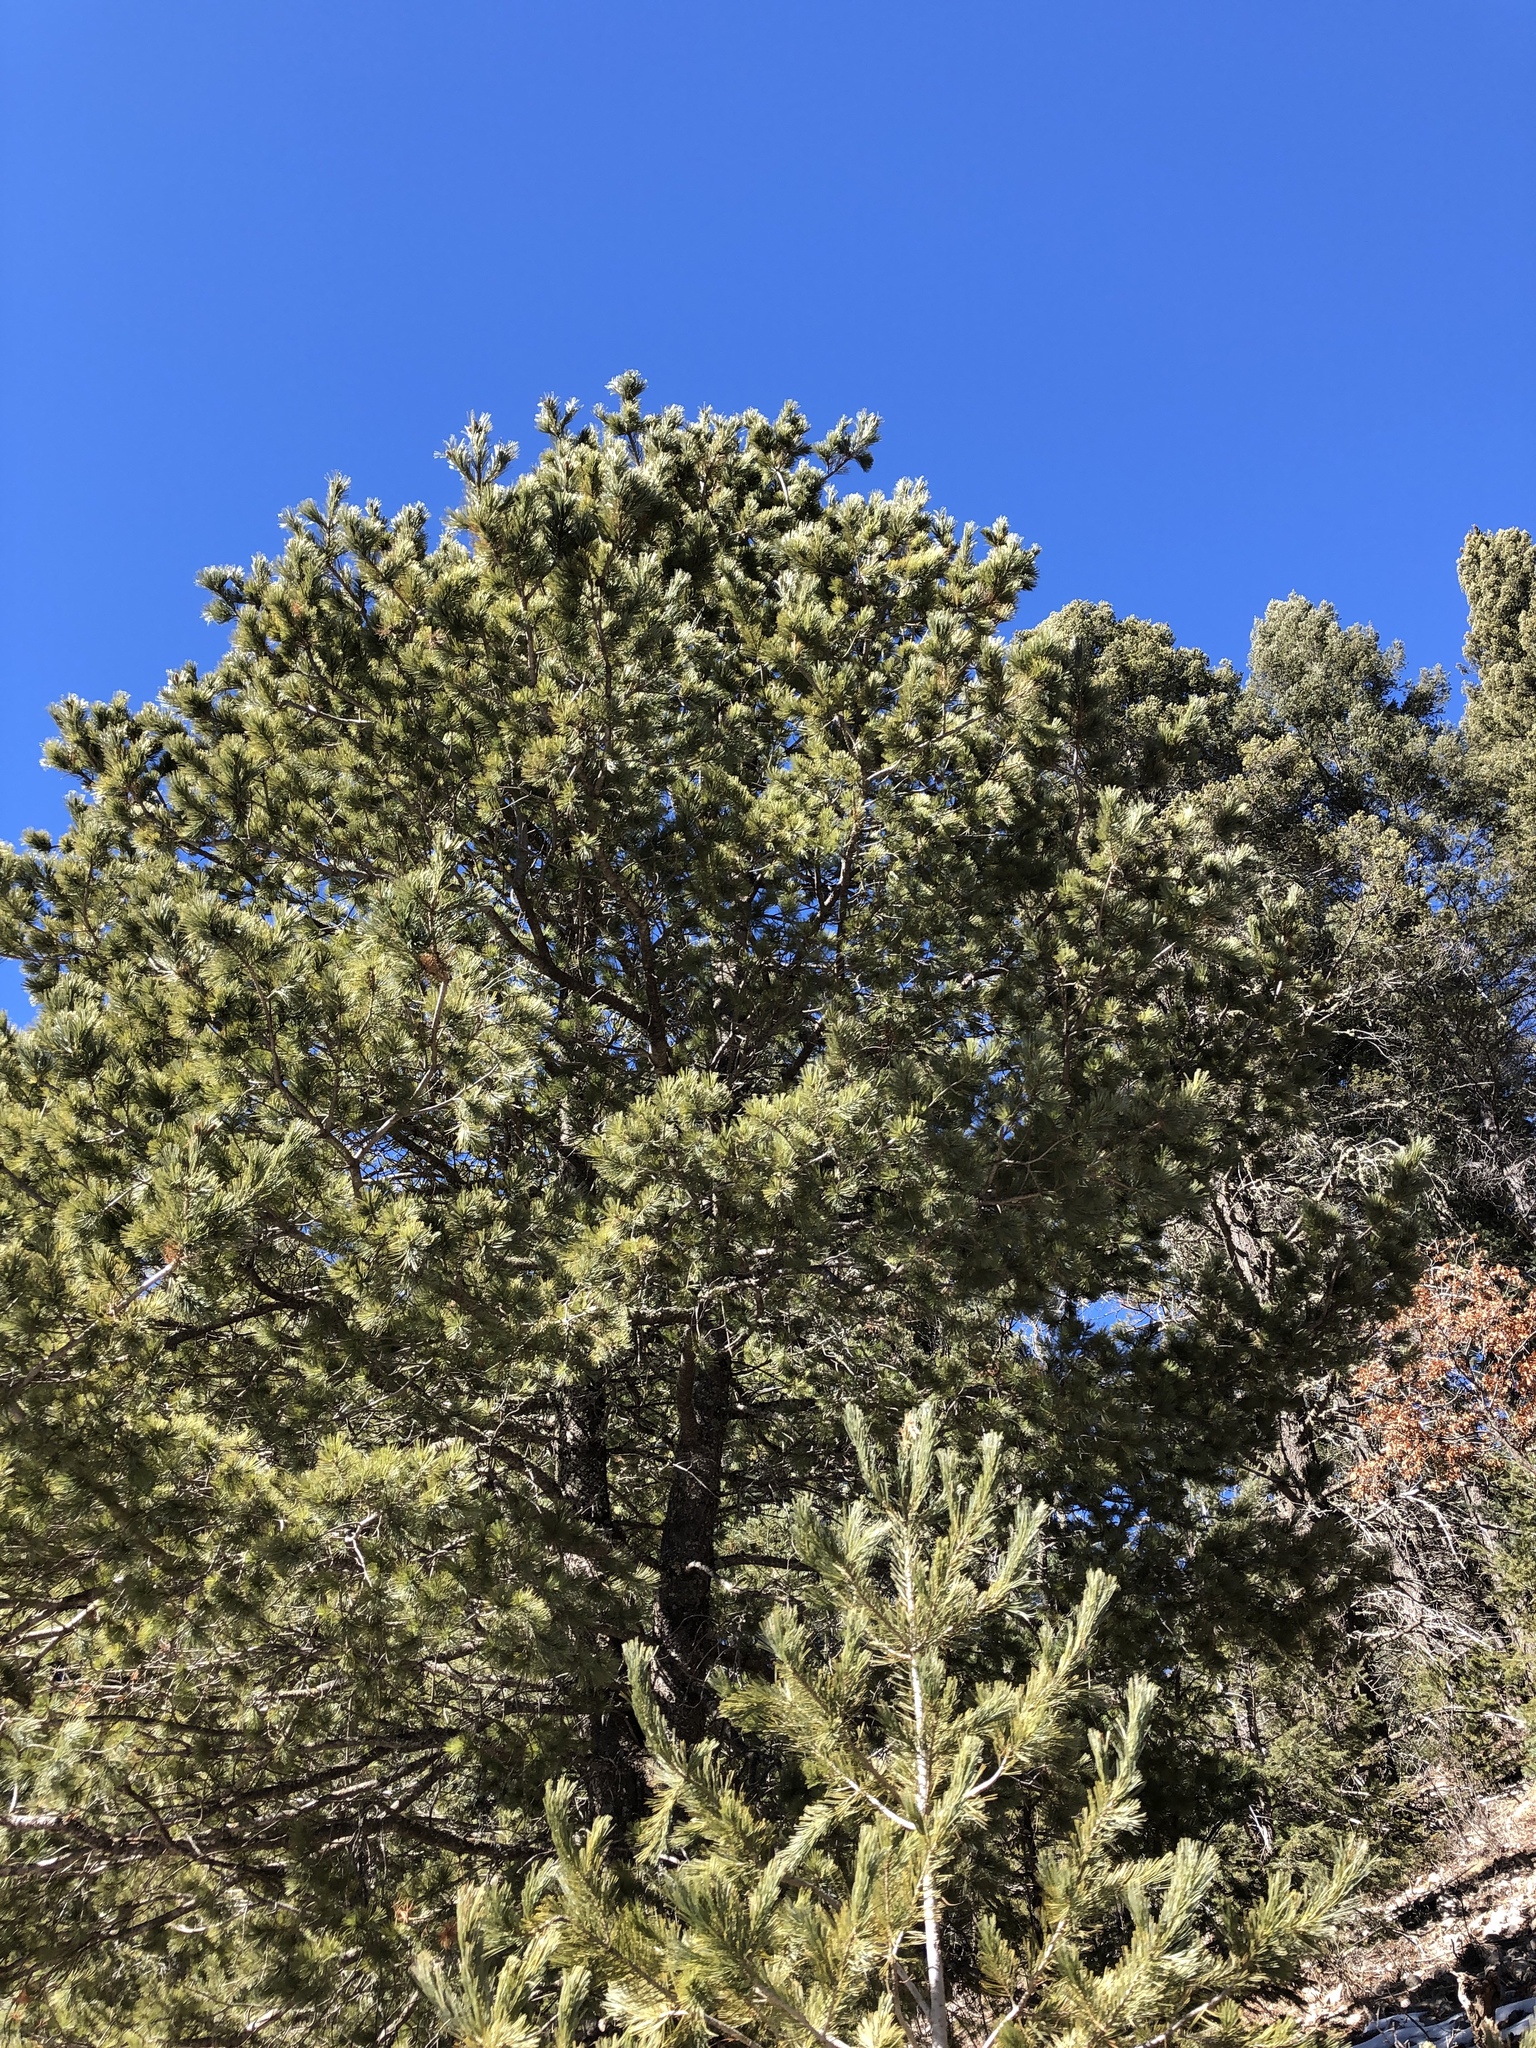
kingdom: Plantae
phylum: Tracheophyta
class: Pinopsida
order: Pinales
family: Pinaceae
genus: Pinus
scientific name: Pinus strobiformis
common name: Southwestern white pine
